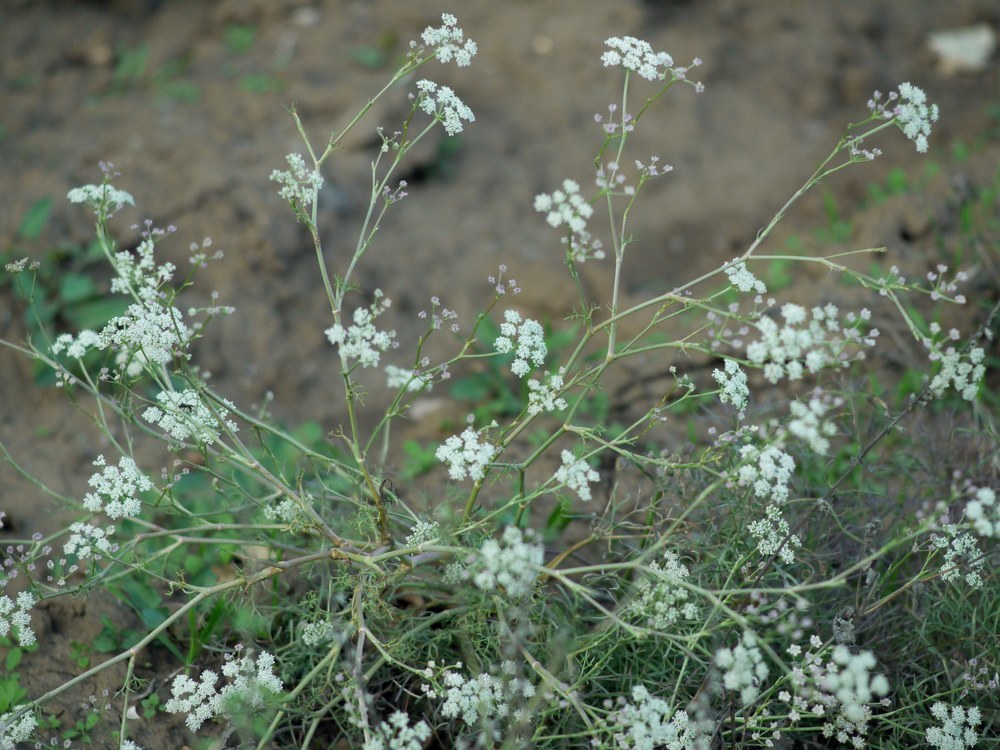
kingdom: Plantae
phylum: Tracheophyta
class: Magnoliopsida
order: Apiales
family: Apiaceae
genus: Seseli
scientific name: Seseli arenarium
